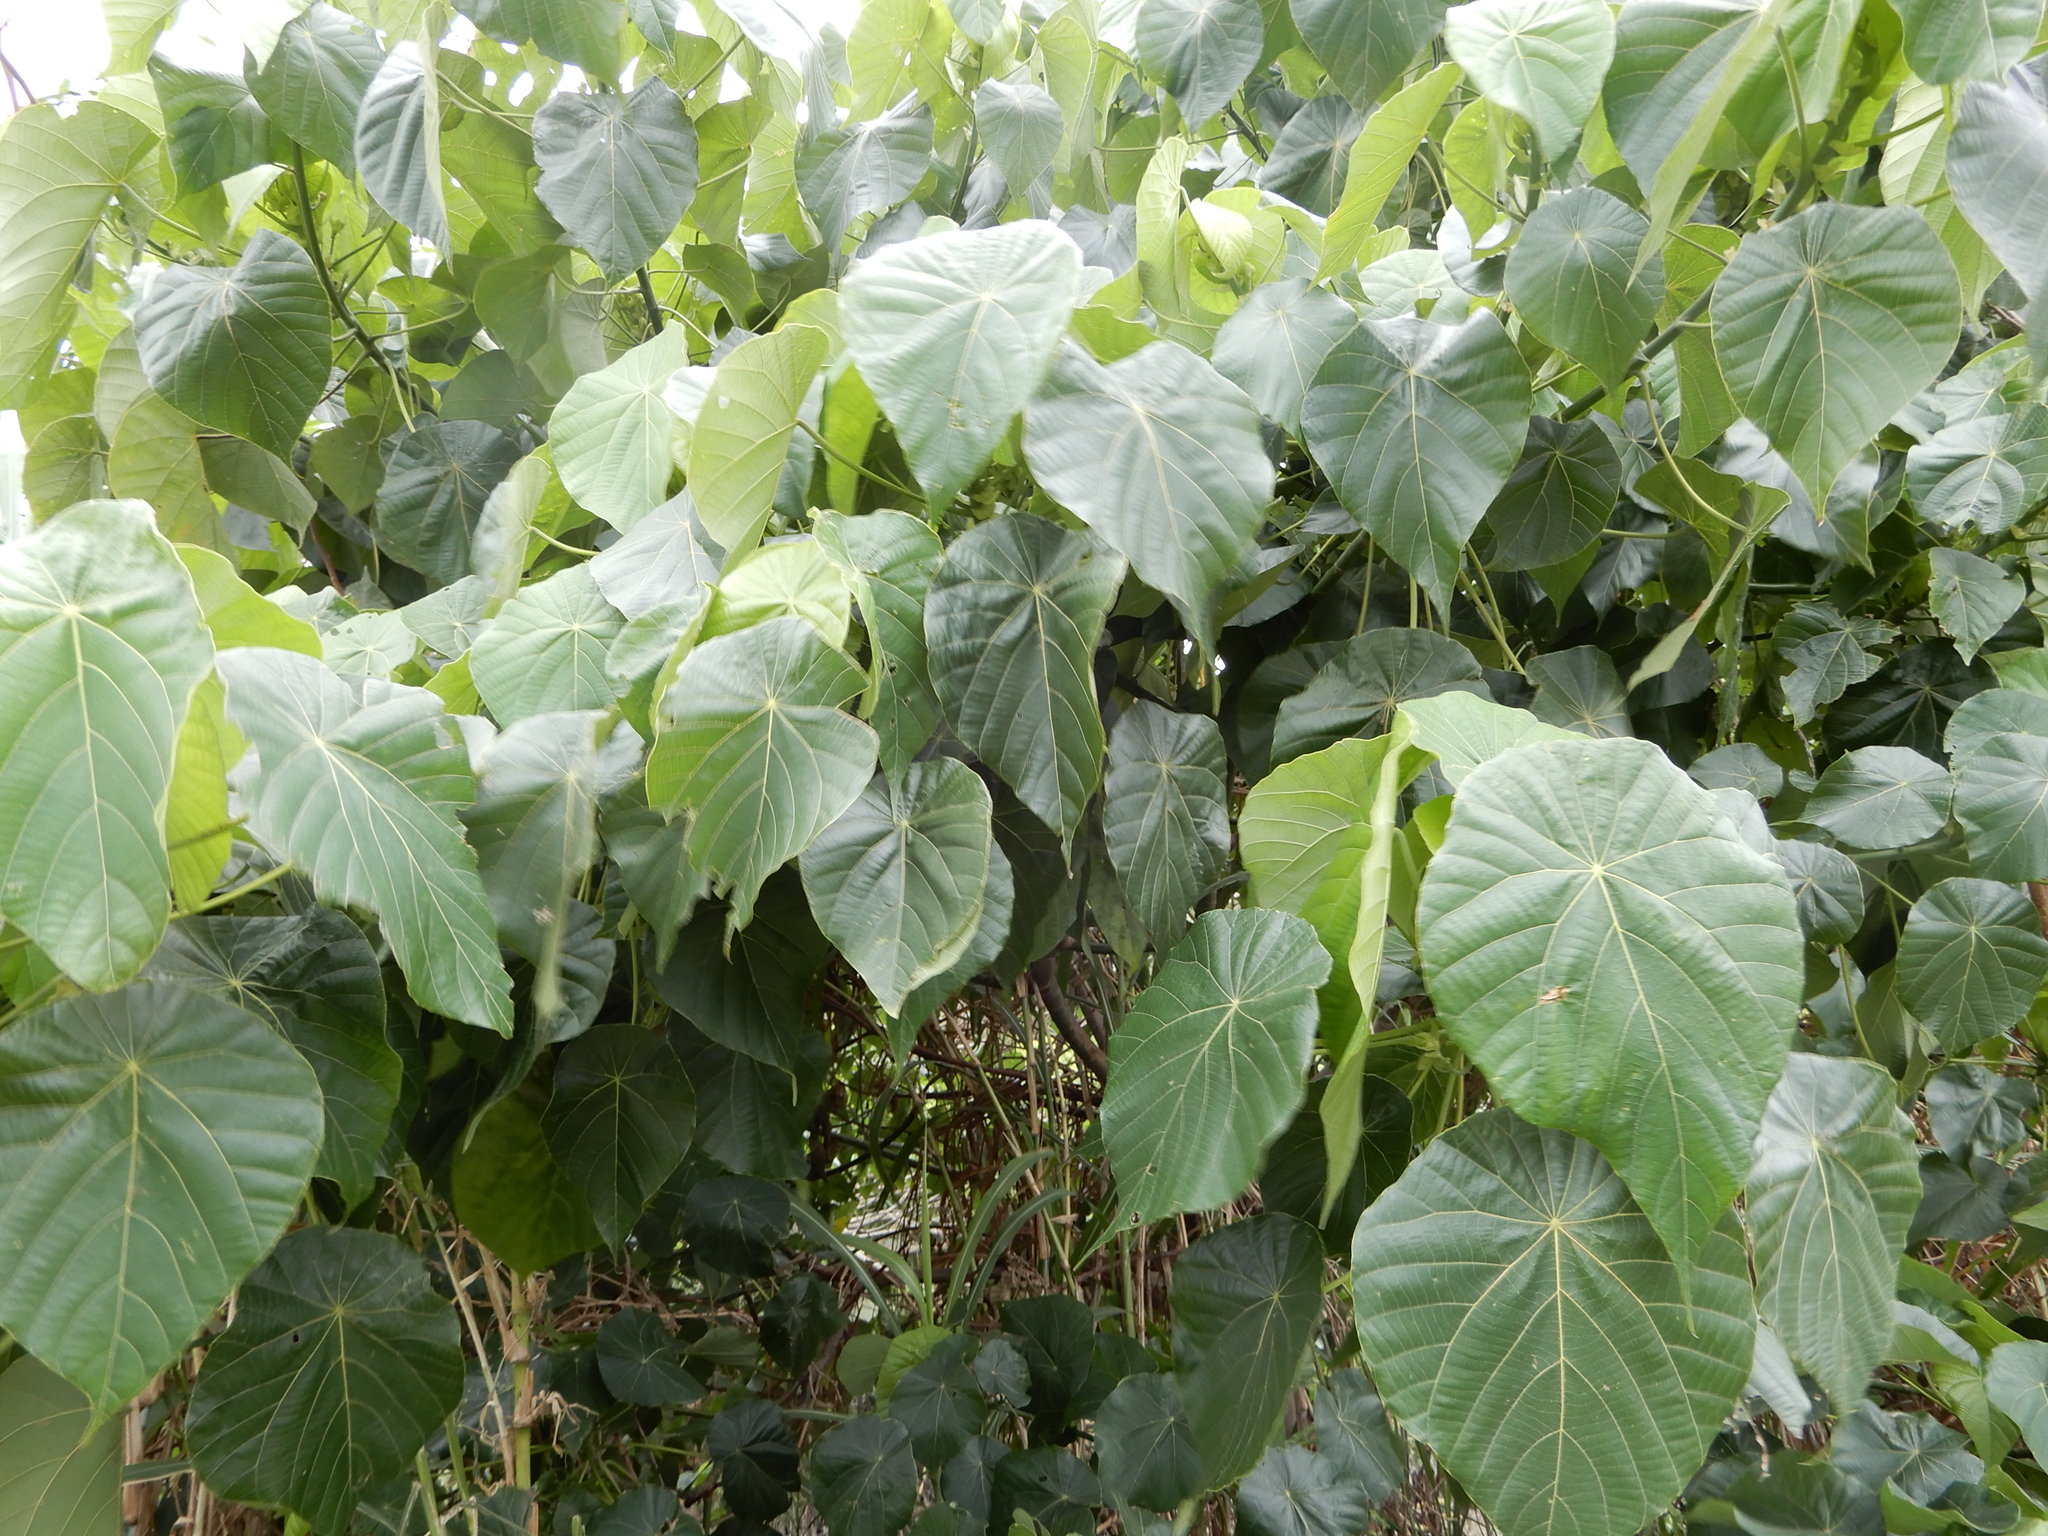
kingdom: Plantae
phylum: Tracheophyta
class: Magnoliopsida
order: Malpighiales
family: Euphorbiaceae
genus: Macaranga
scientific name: Macaranga tanarius
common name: Parasol leaf tree
